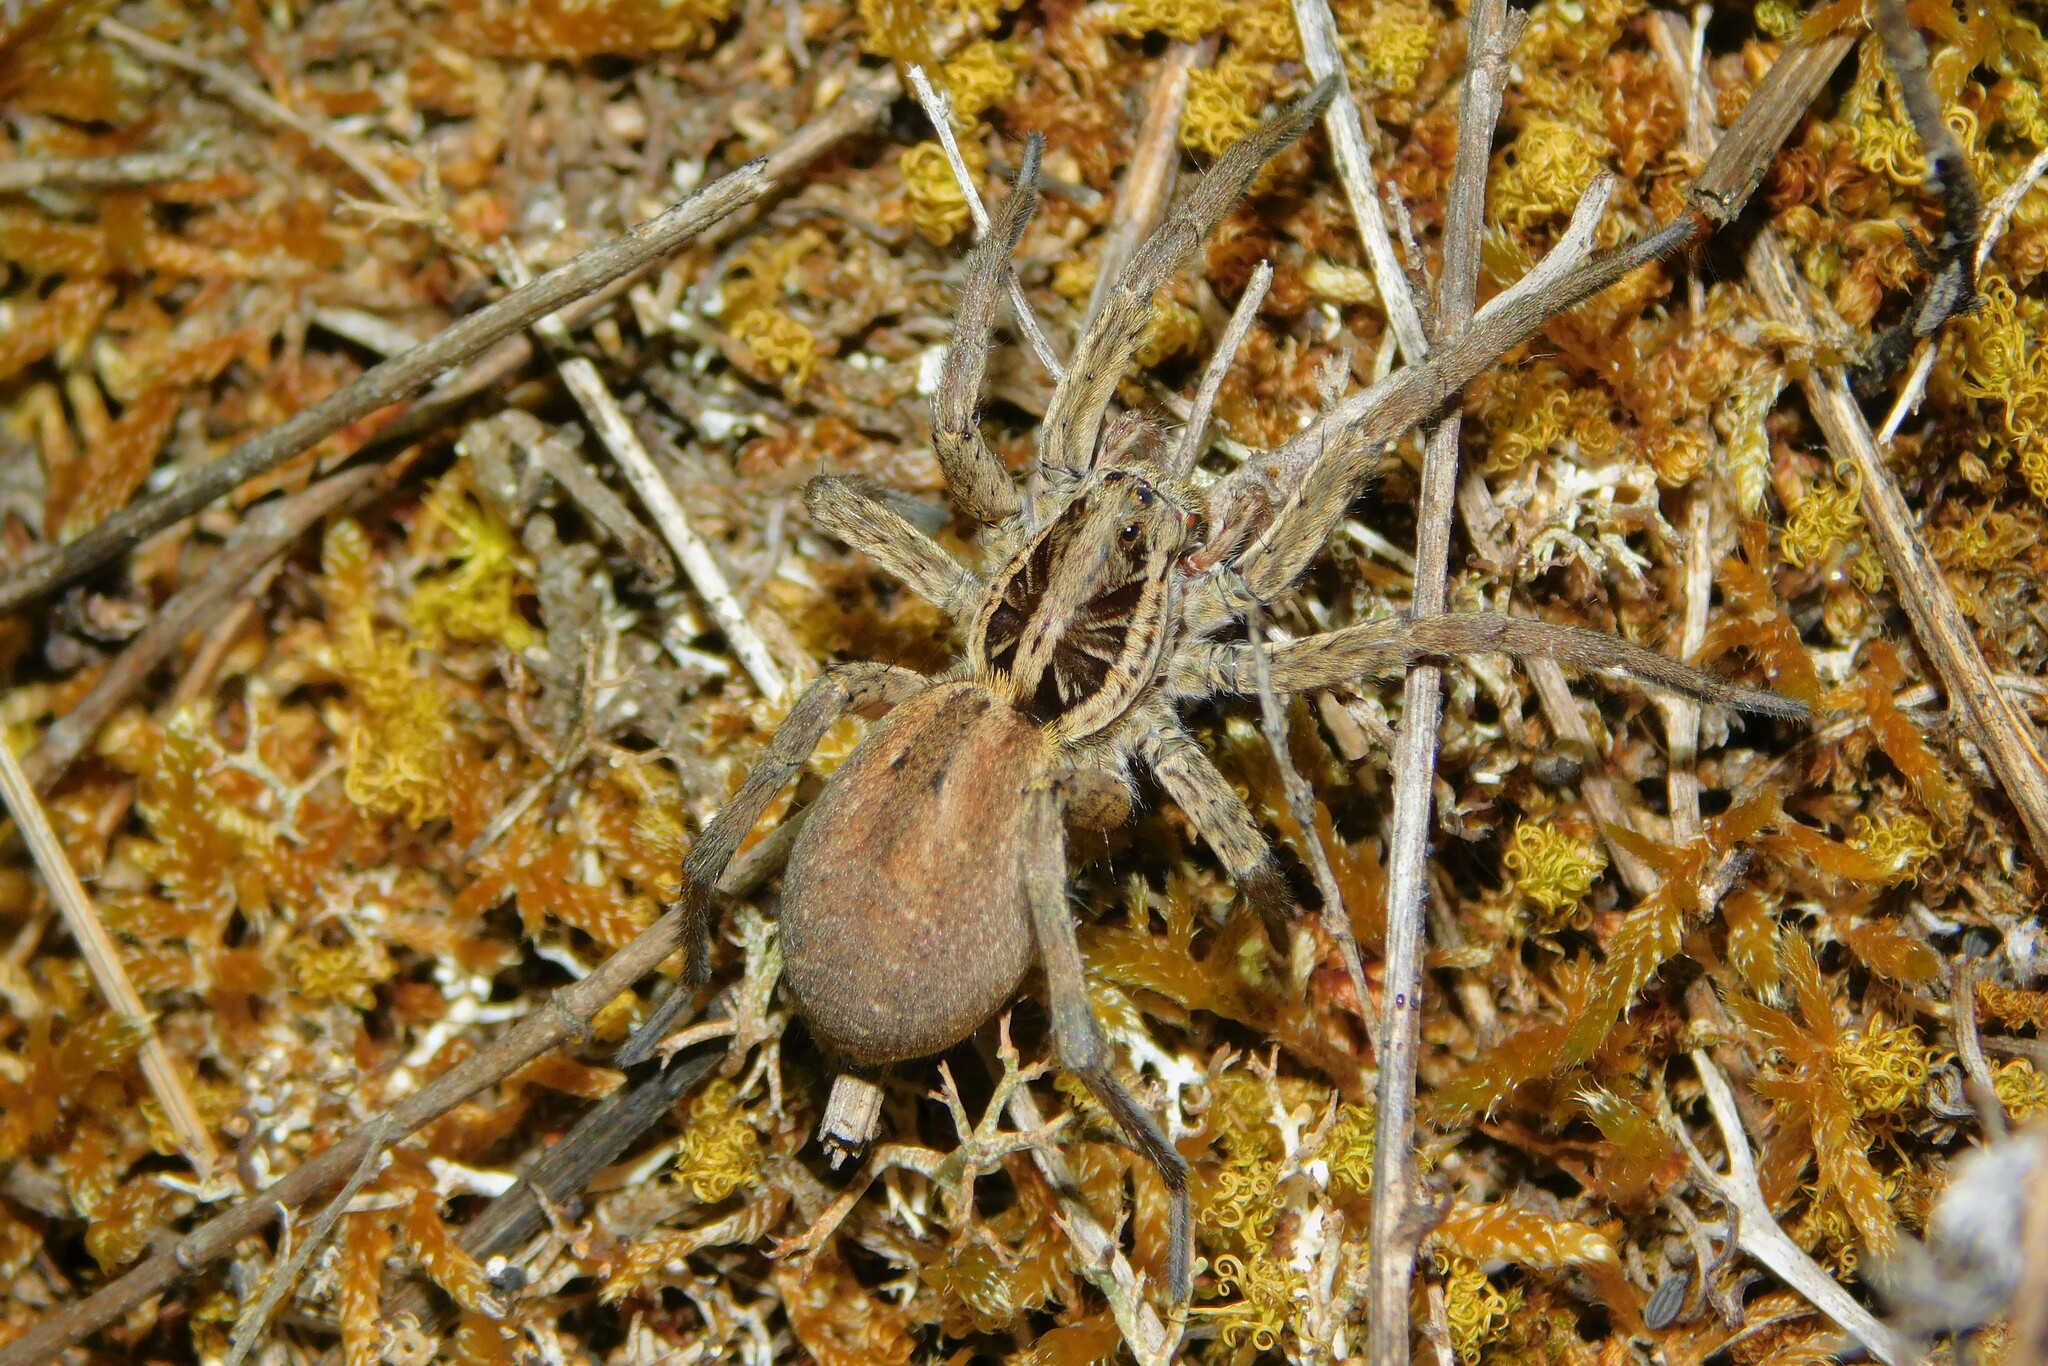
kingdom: Animalia
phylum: Arthropoda
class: Arachnida
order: Araneae
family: Lycosidae
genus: Hogna
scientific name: Hogna radiata
